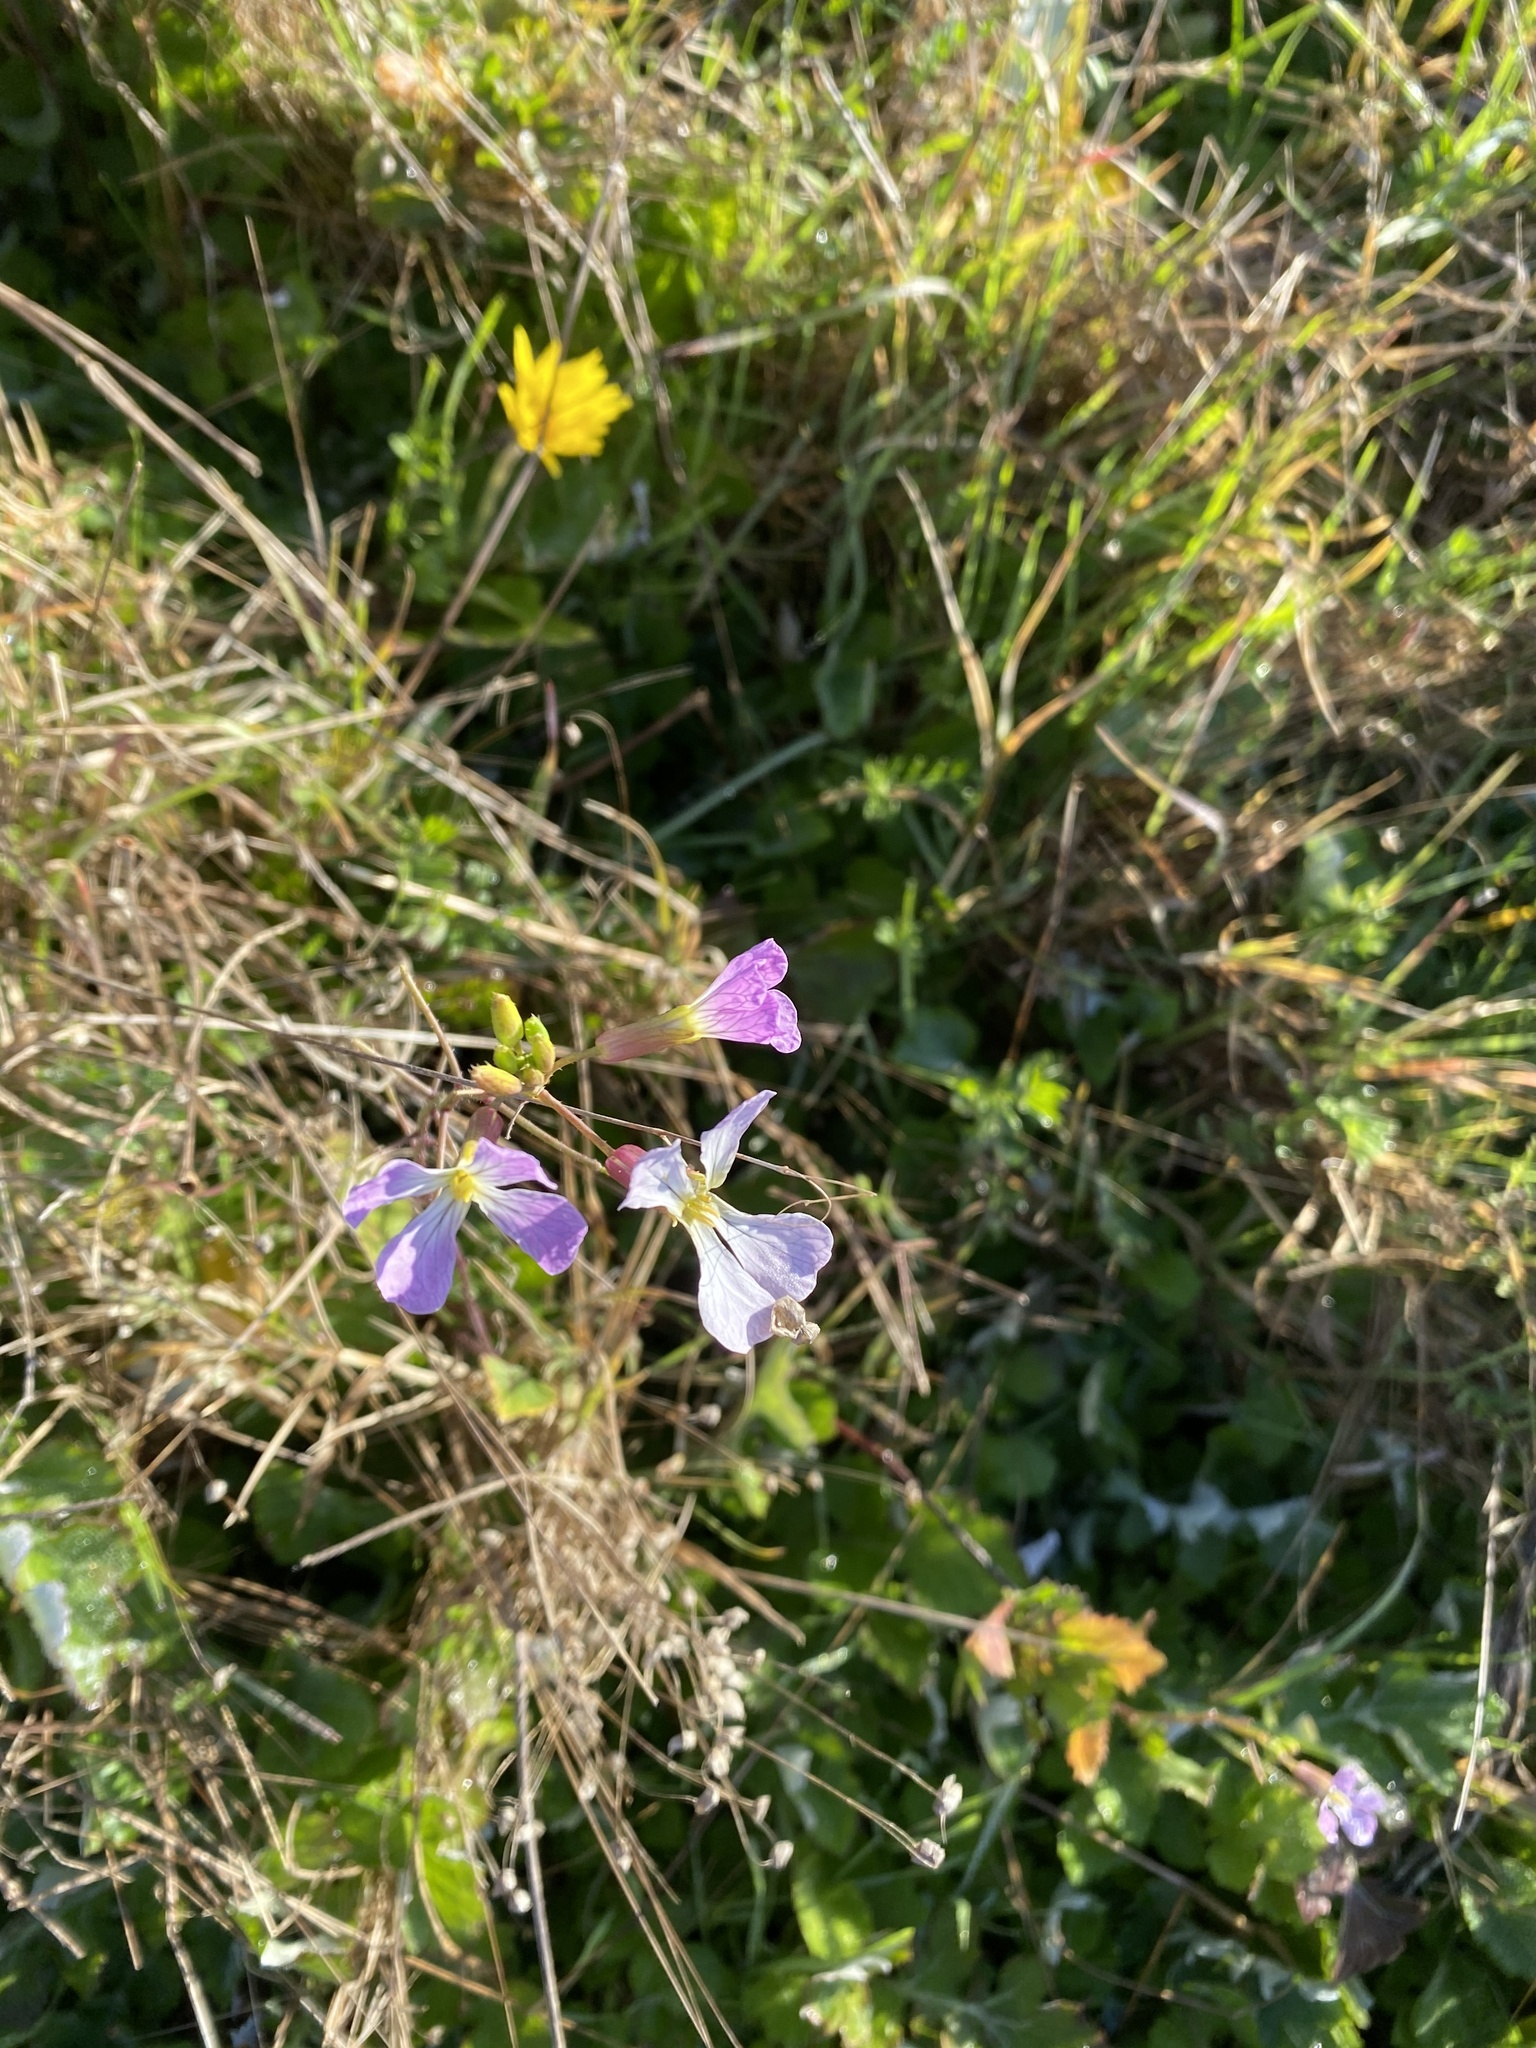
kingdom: Plantae
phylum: Tracheophyta
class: Magnoliopsida
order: Brassicales
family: Brassicaceae
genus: Raphanus
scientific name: Raphanus sativus
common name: Cultivated radish
